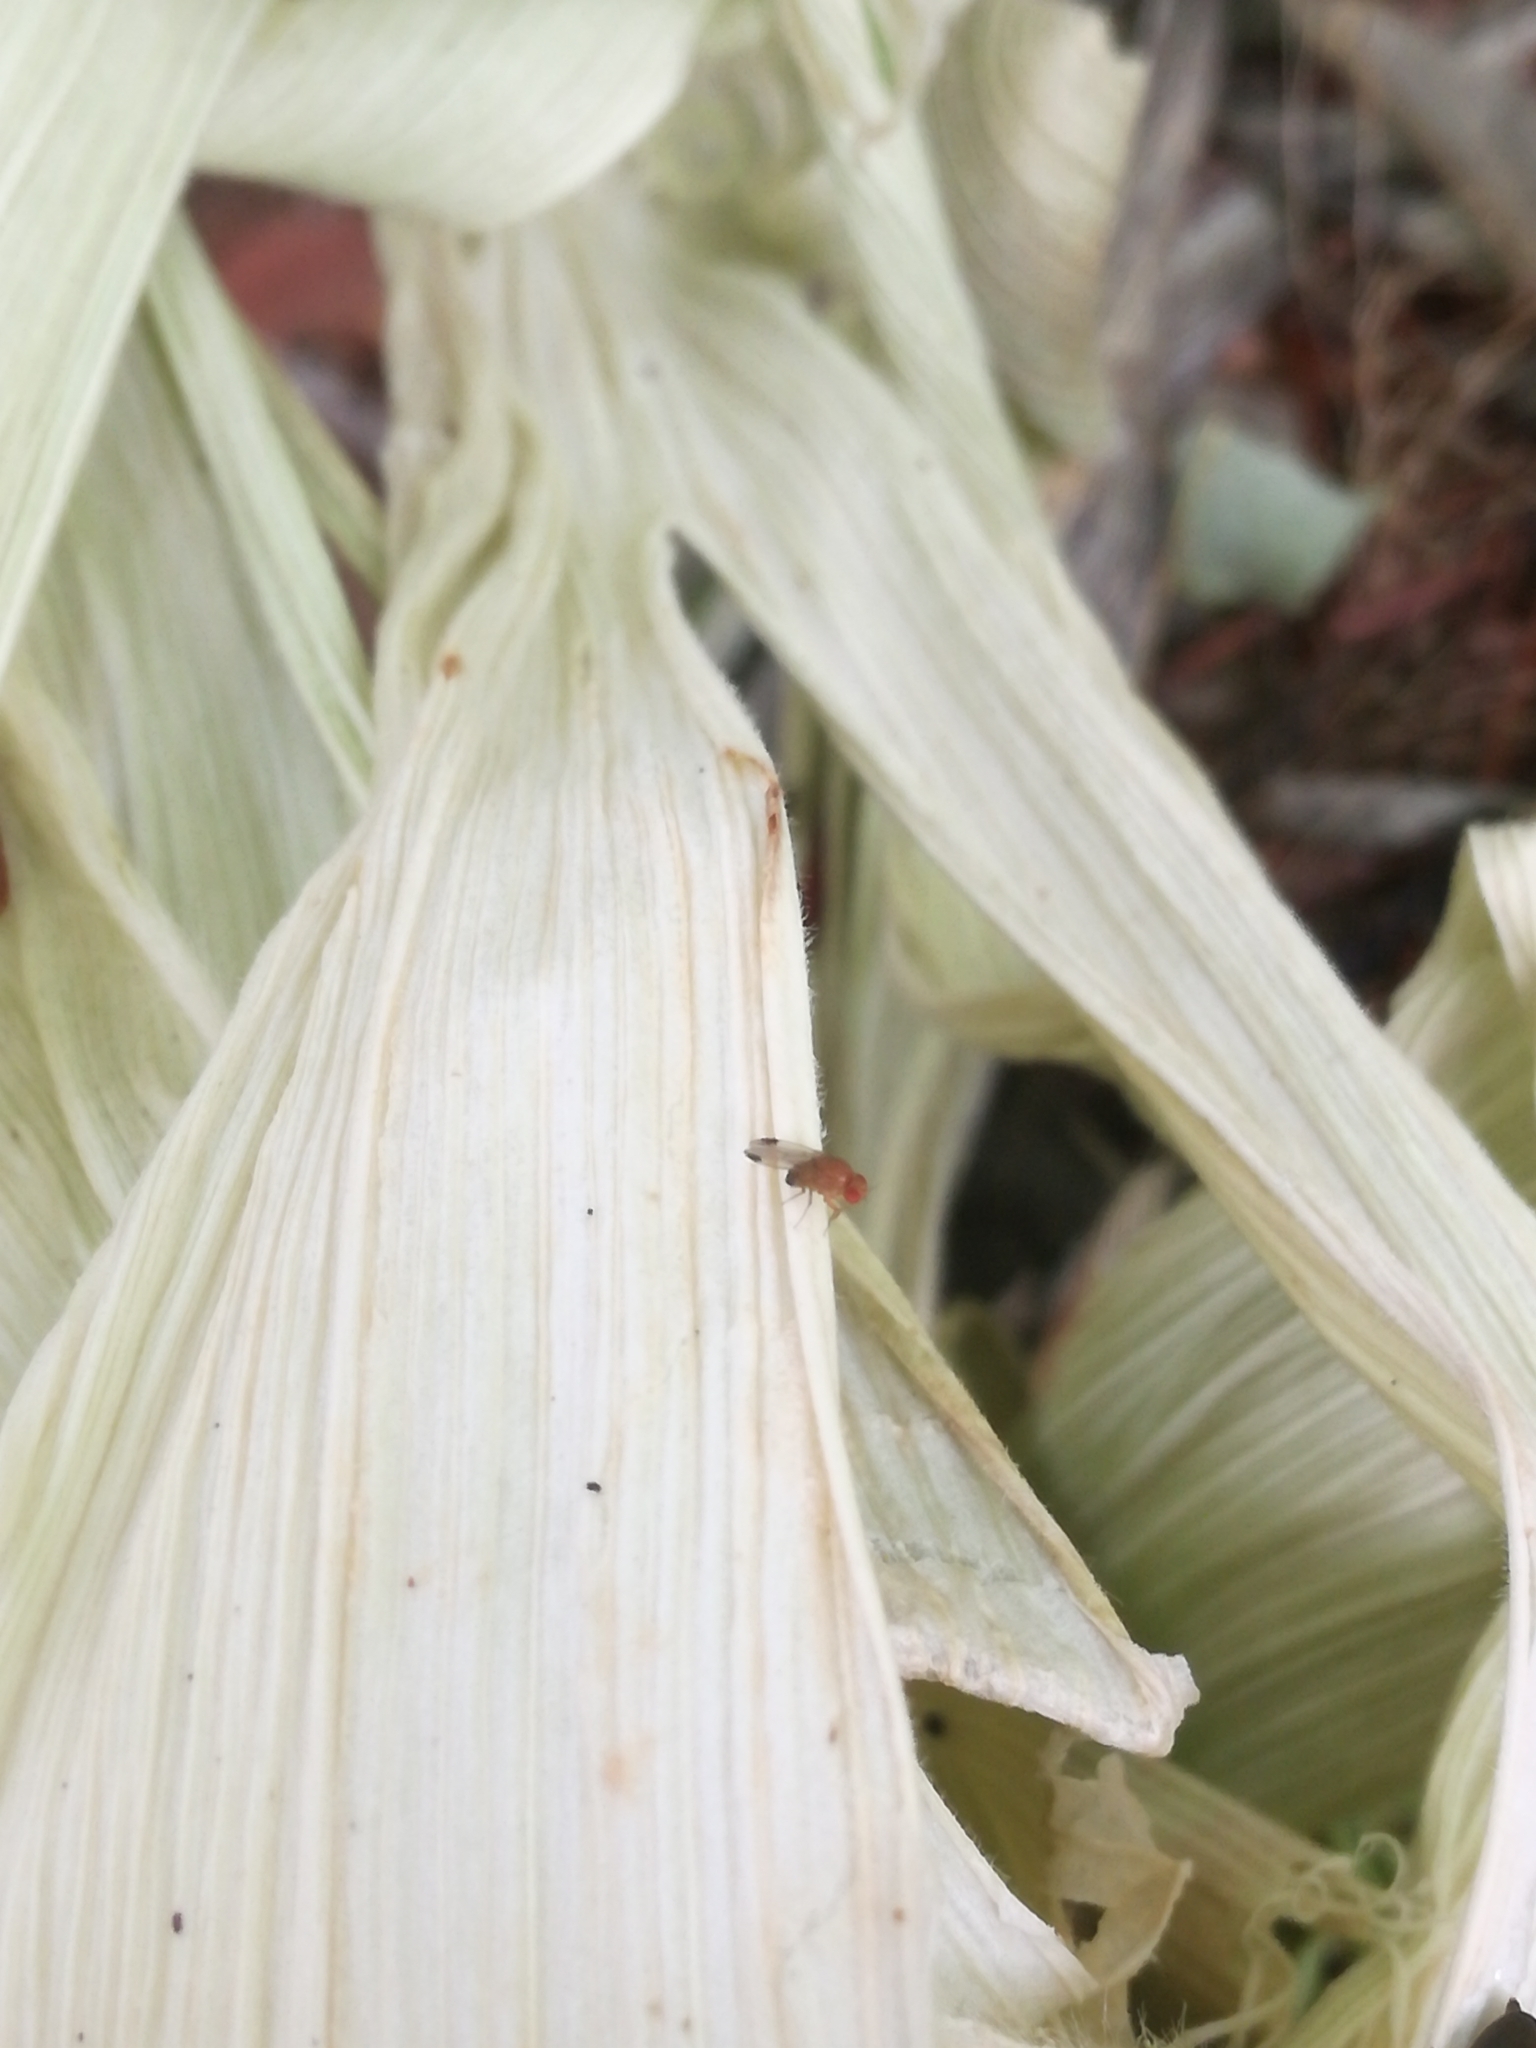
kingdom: Animalia
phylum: Arthropoda
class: Insecta
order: Diptera
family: Drosophilidae
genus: Drosophila
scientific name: Drosophila suzukii
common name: Spotted-wing drosophila
